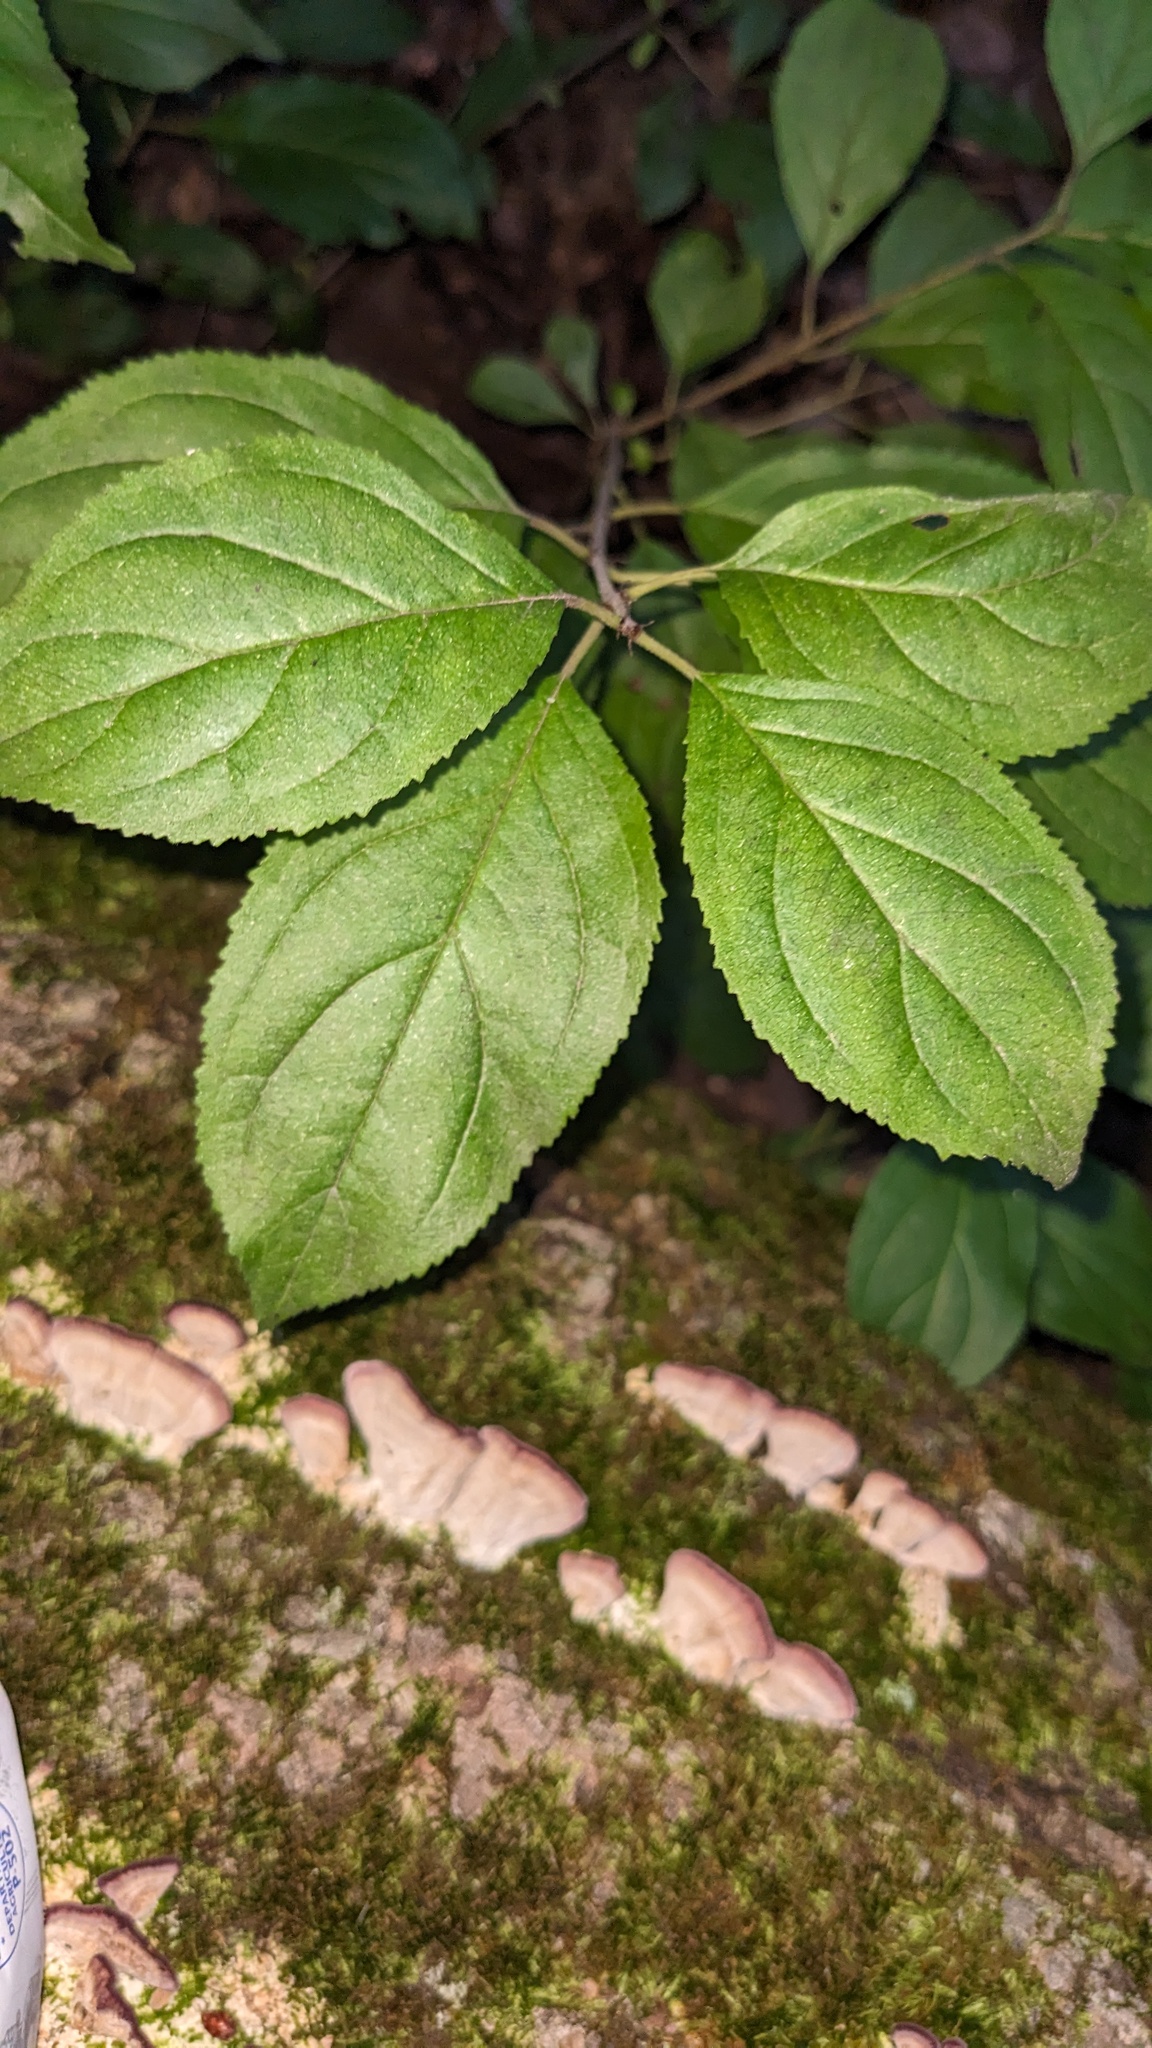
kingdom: Plantae
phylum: Tracheophyta
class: Magnoliopsida
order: Rosales
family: Rhamnaceae
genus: Rhamnus
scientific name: Rhamnus cathartica
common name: Common buckthorn
